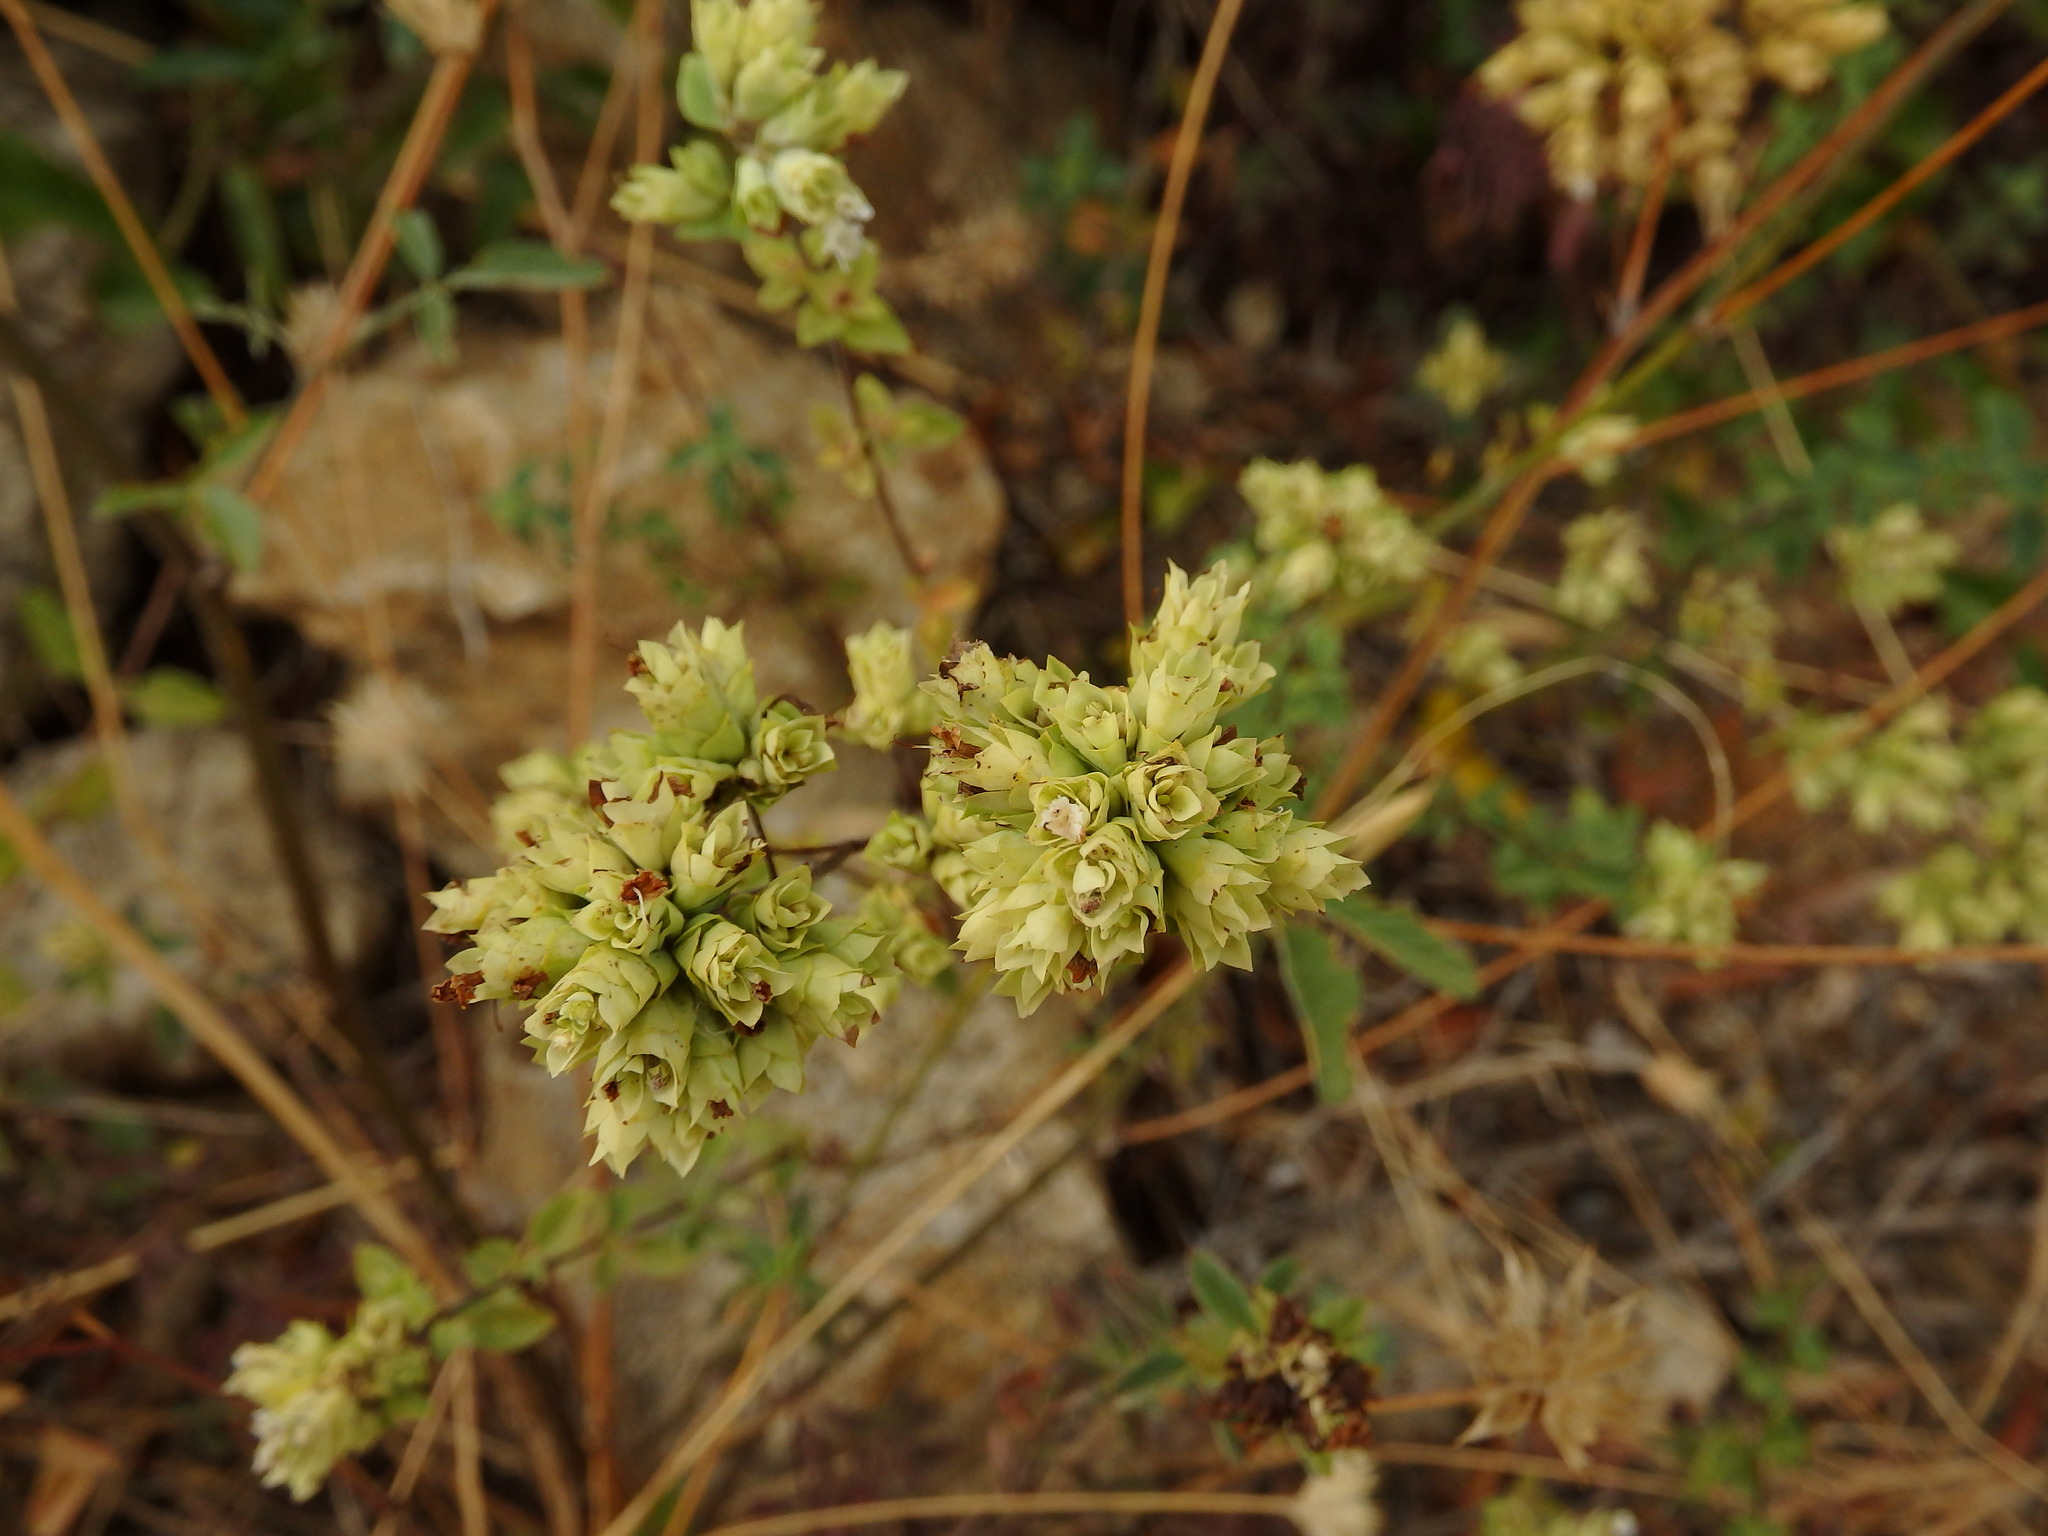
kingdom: Plantae
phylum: Tracheophyta
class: Magnoliopsida
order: Lamiales
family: Lamiaceae
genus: Origanum
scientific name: Origanum vulgare
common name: Wild marjoram
